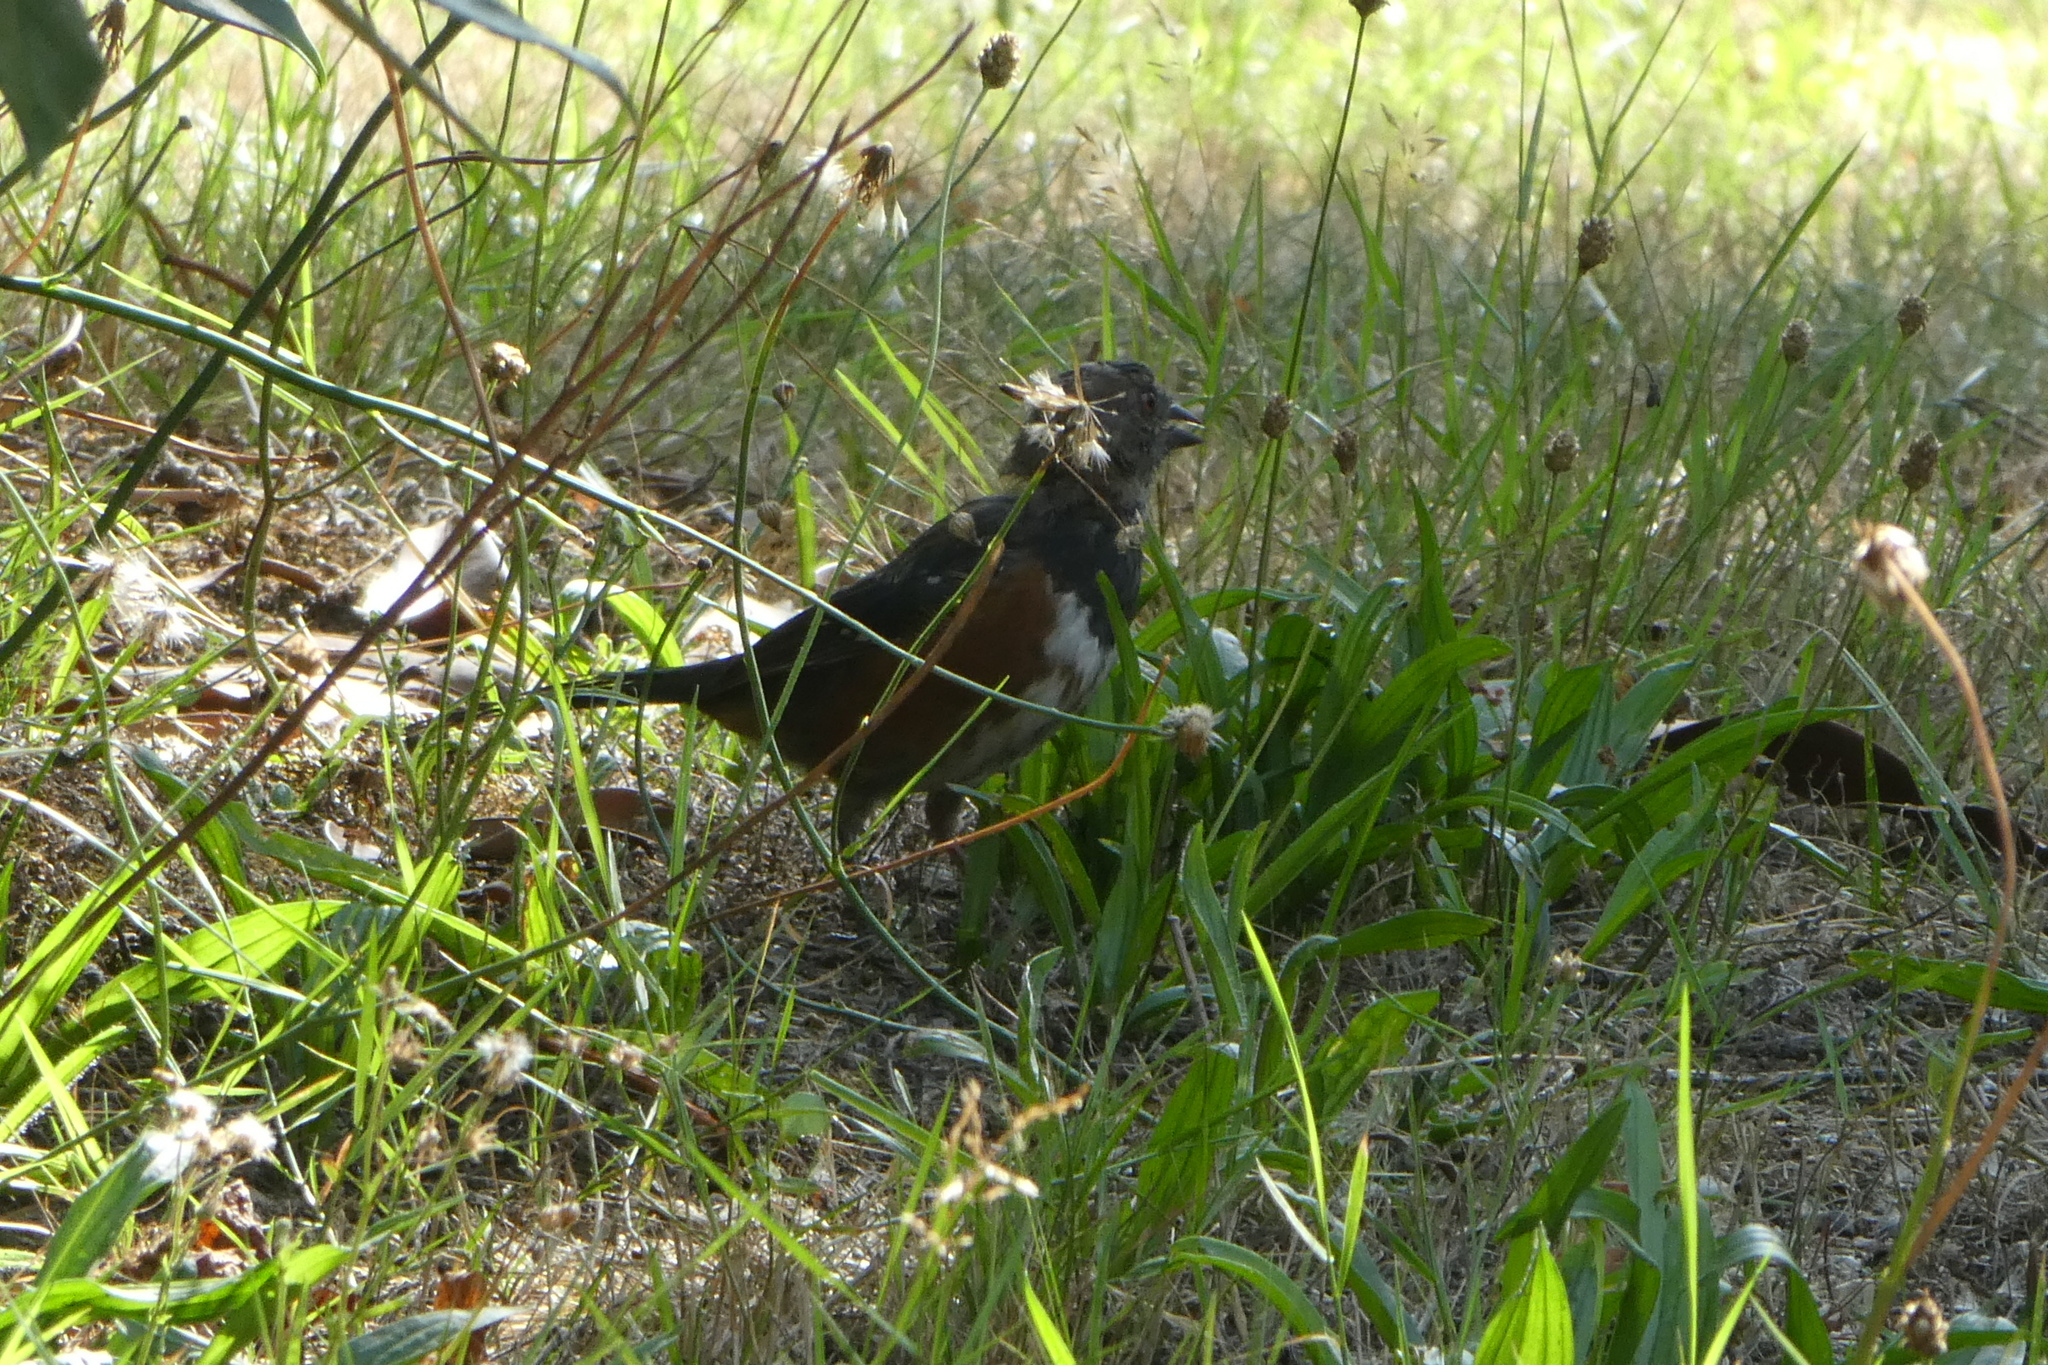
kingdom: Animalia
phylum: Chordata
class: Aves
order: Passeriformes
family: Passerellidae
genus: Pipilo
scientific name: Pipilo maculatus
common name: Spotted towhee
